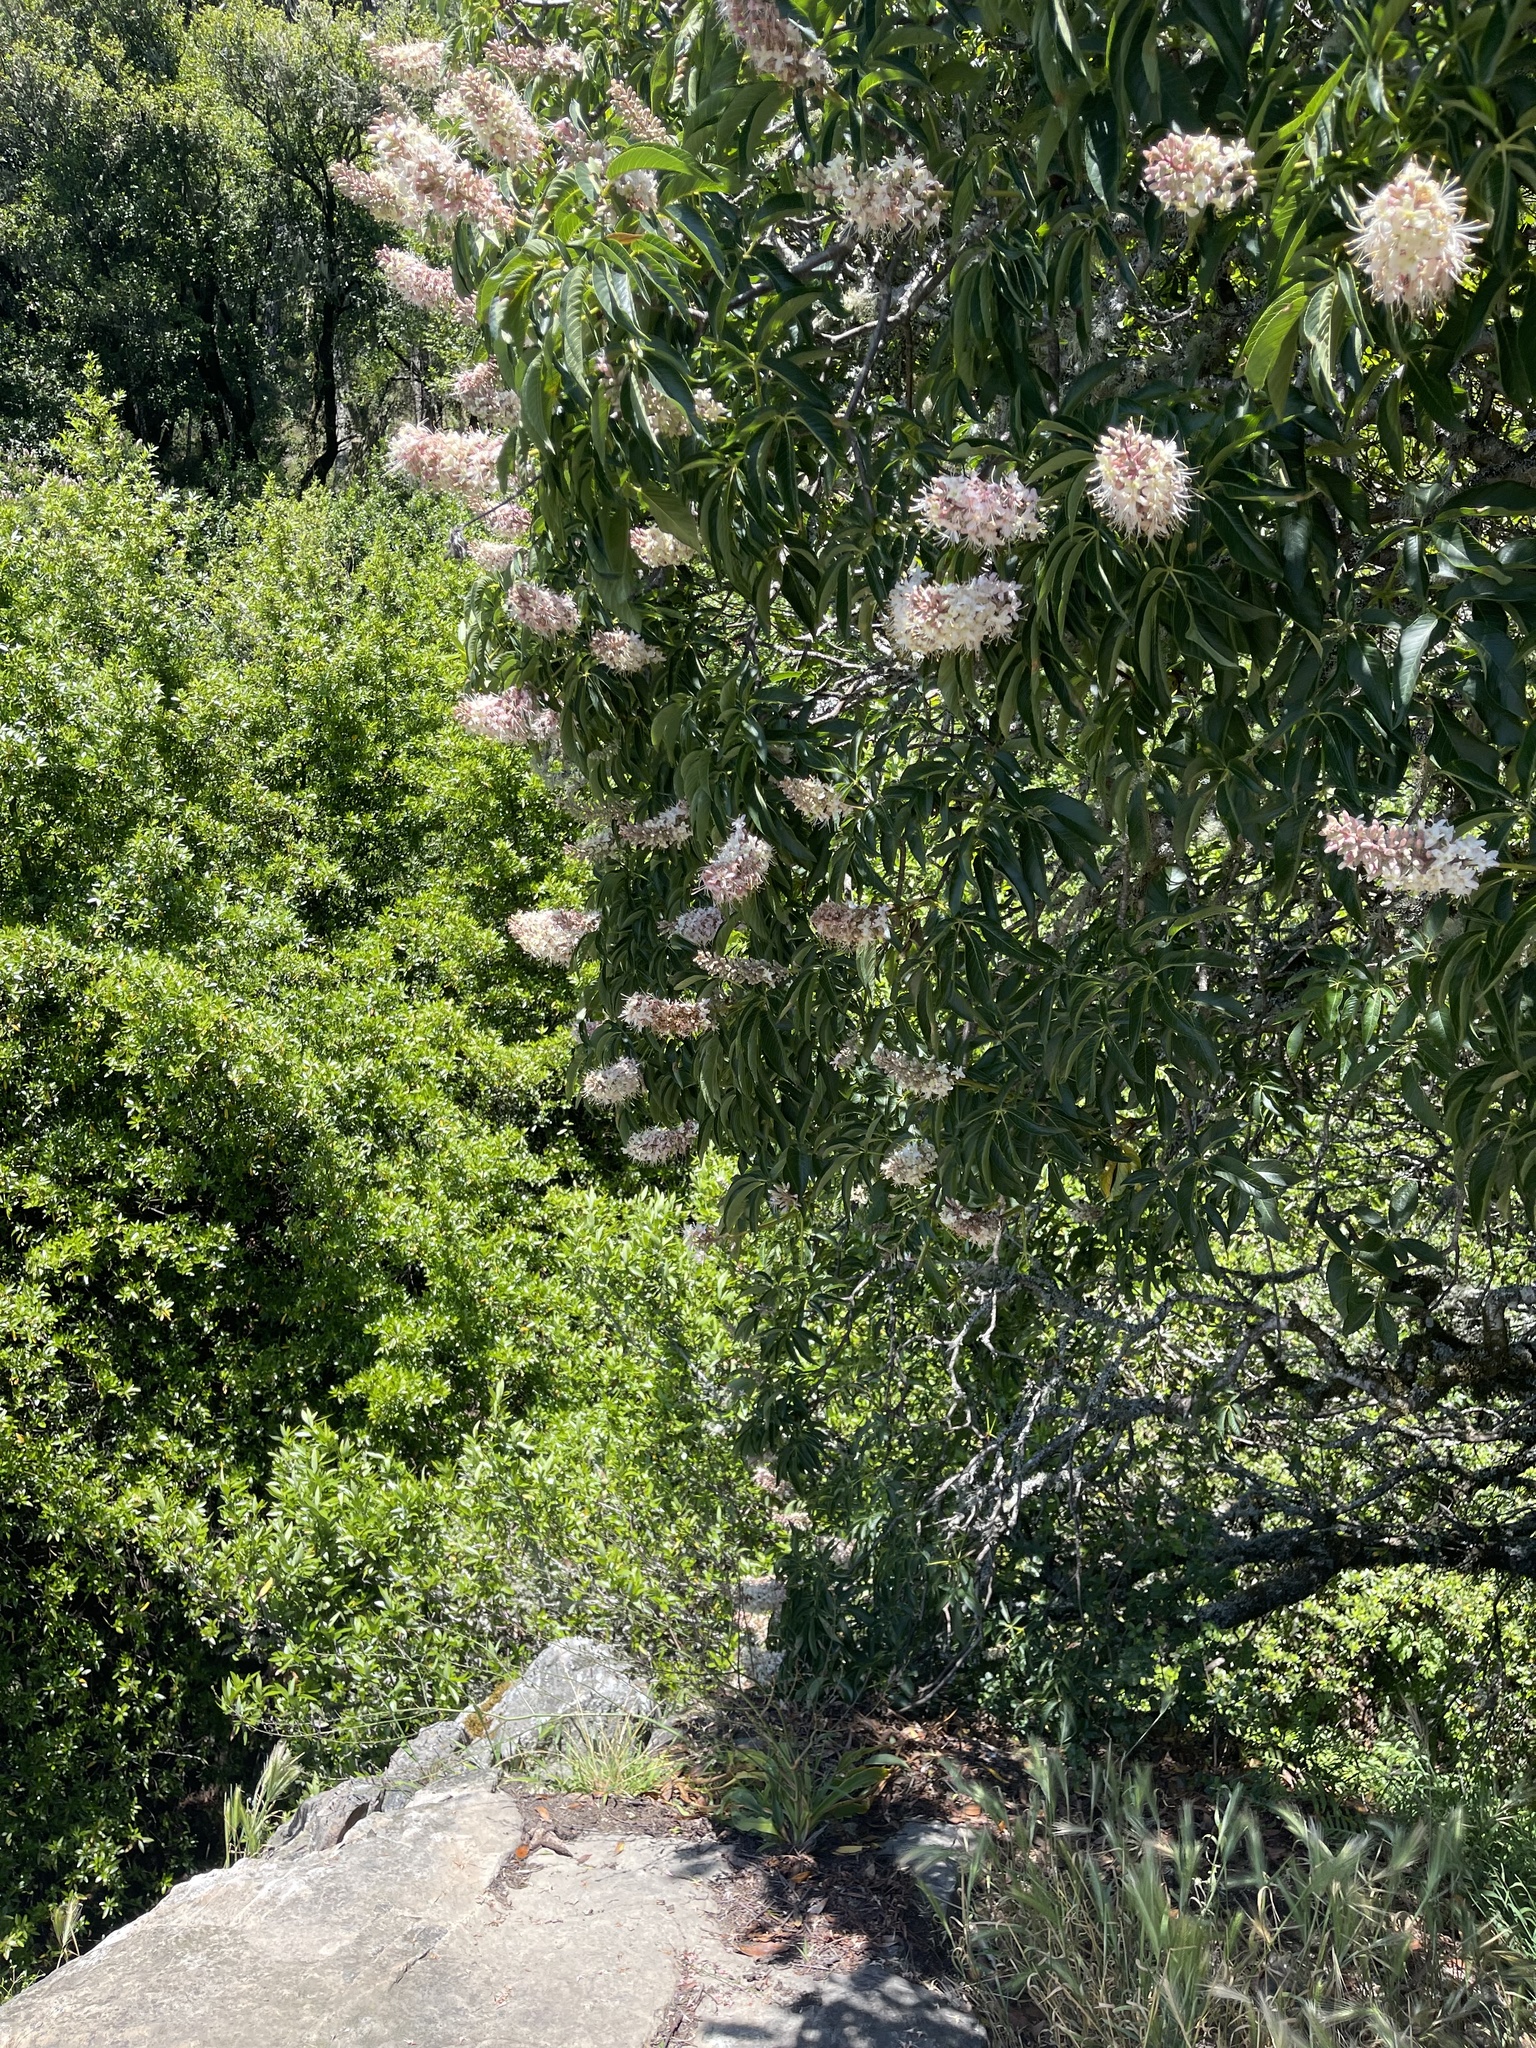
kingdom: Plantae
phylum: Tracheophyta
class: Magnoliopsida
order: Sapindales
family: Sapindaceae
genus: Aesculus
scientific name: Aesculus californica
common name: California buckeye
